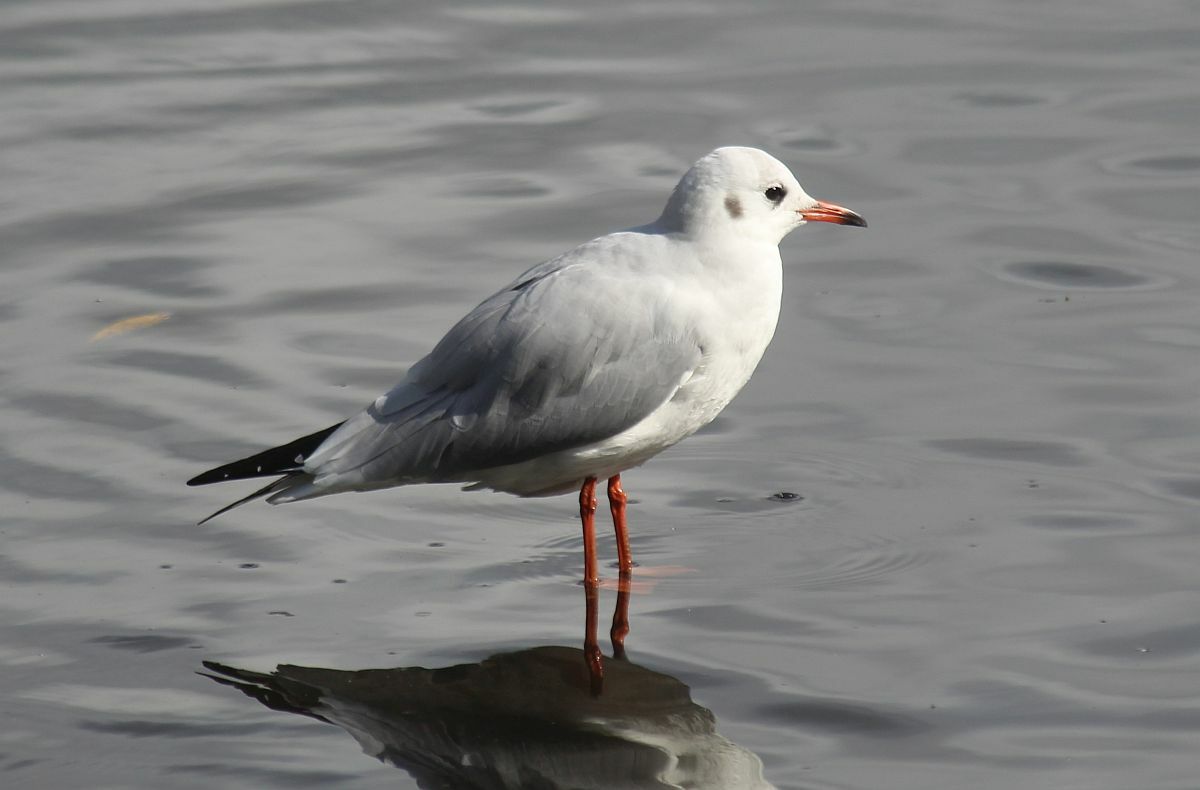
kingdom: Animalia
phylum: Chordata
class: Aves
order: Charadriiformes
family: Laridae
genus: Chroicocephalus
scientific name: Chroicocephalus ridibundus
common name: Black-headed gull
